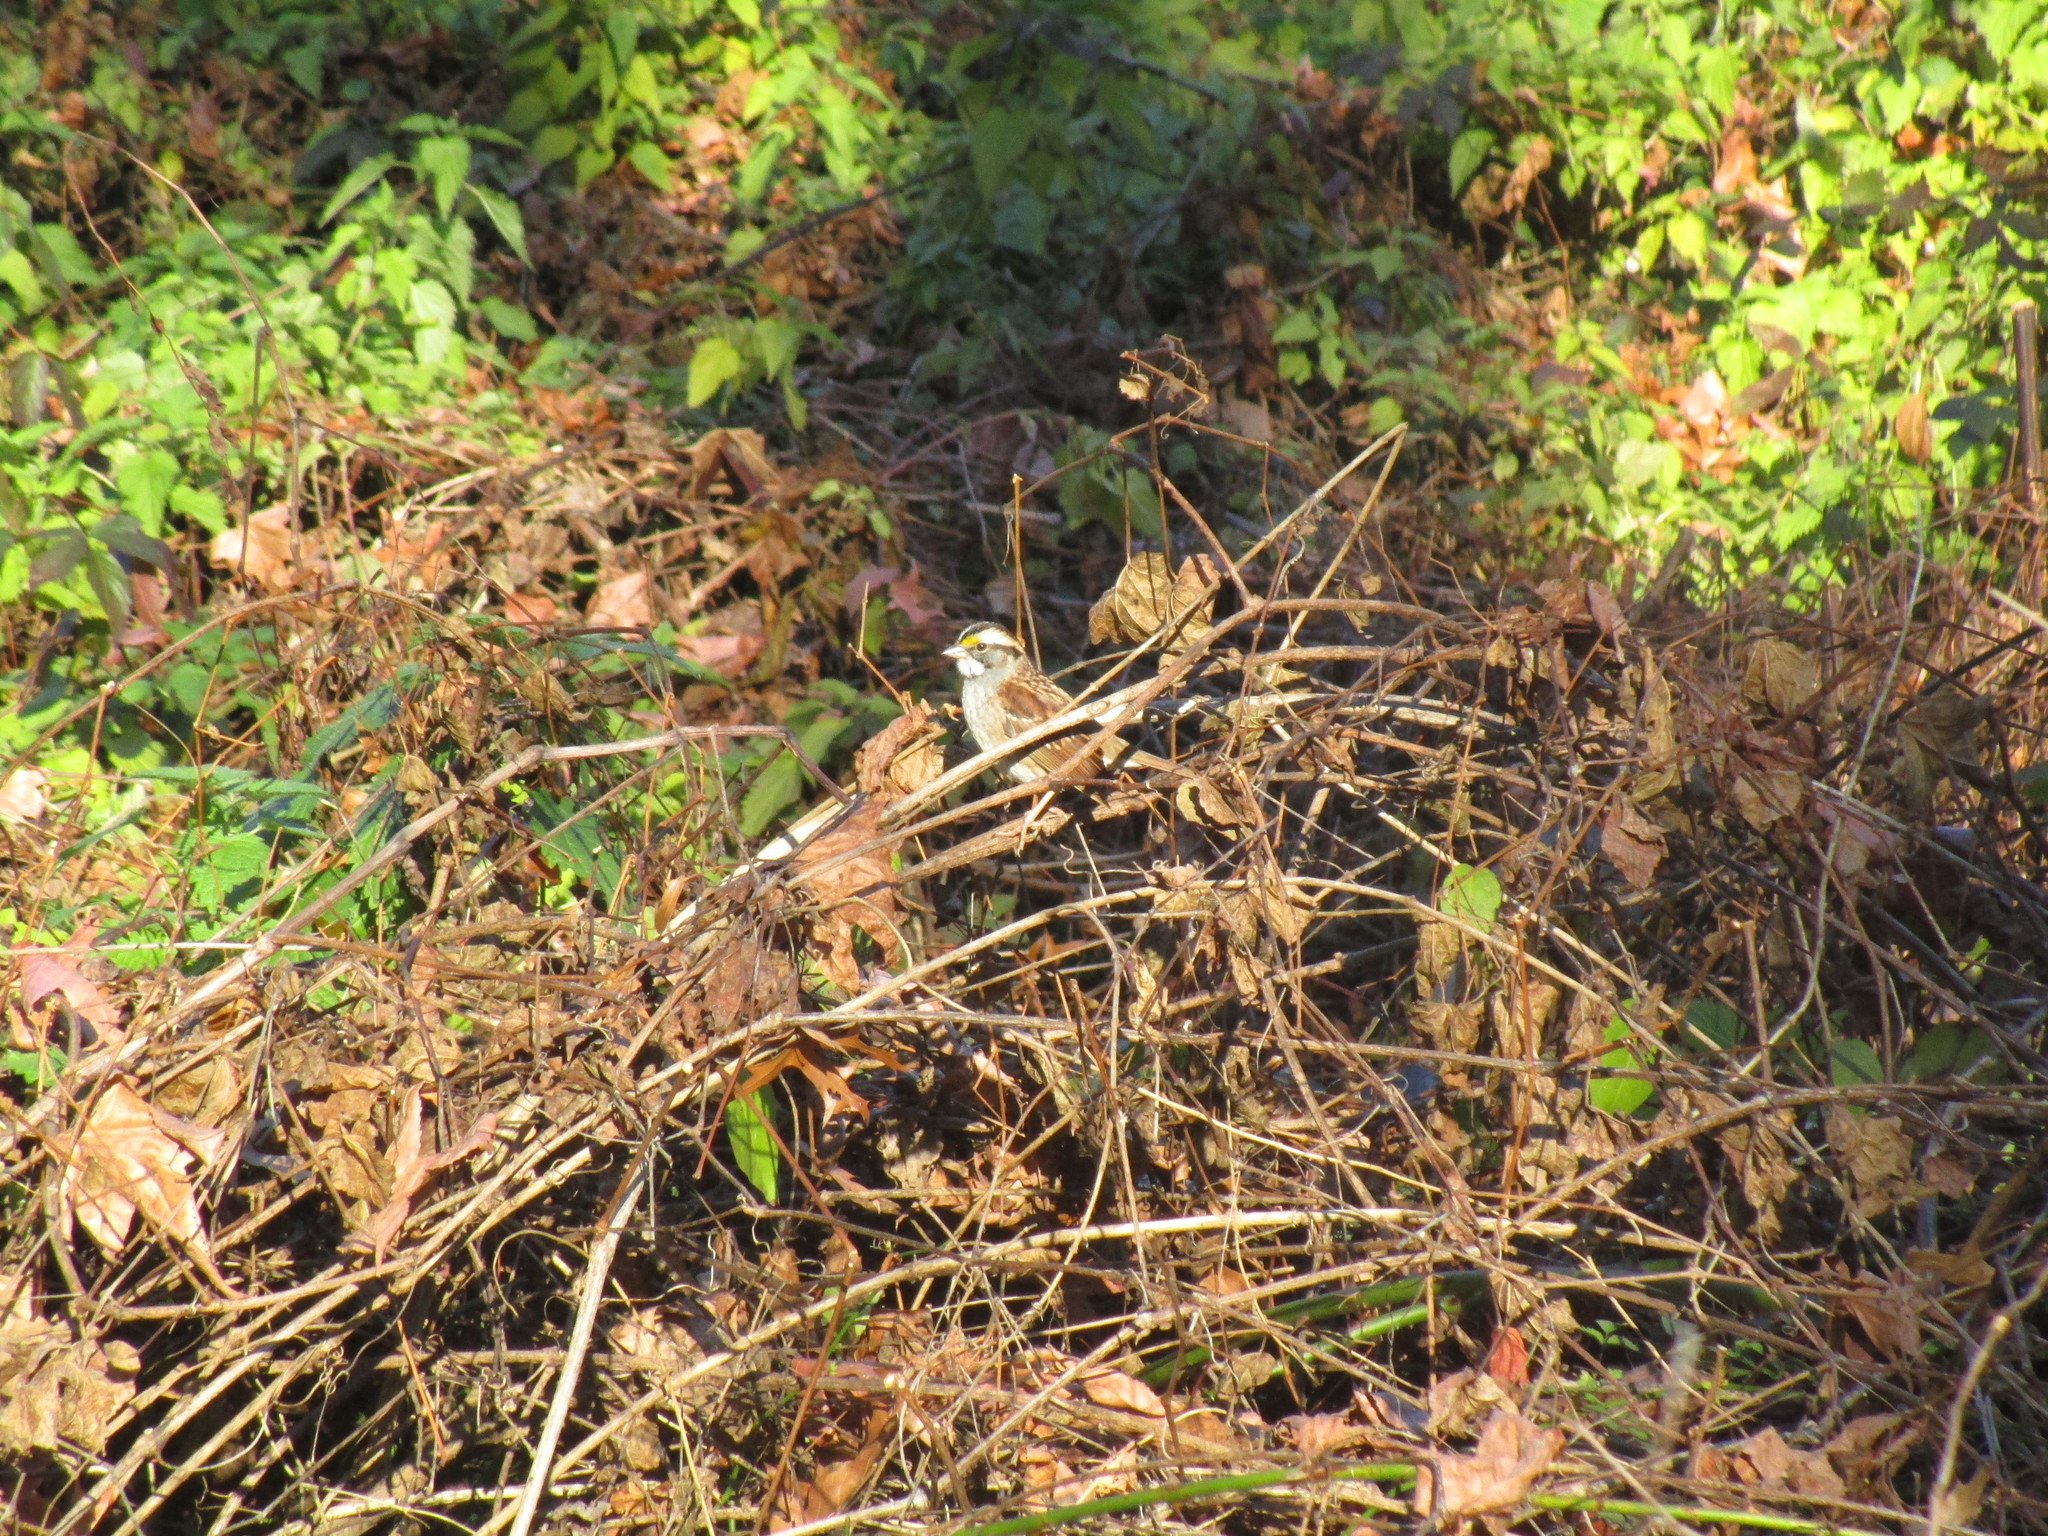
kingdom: Animalia
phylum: Chordata
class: Aves
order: Passeriformes
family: Passerellidae
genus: Zonotrichia
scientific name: Zonotrichia albicollis
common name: White-throated sparrow
